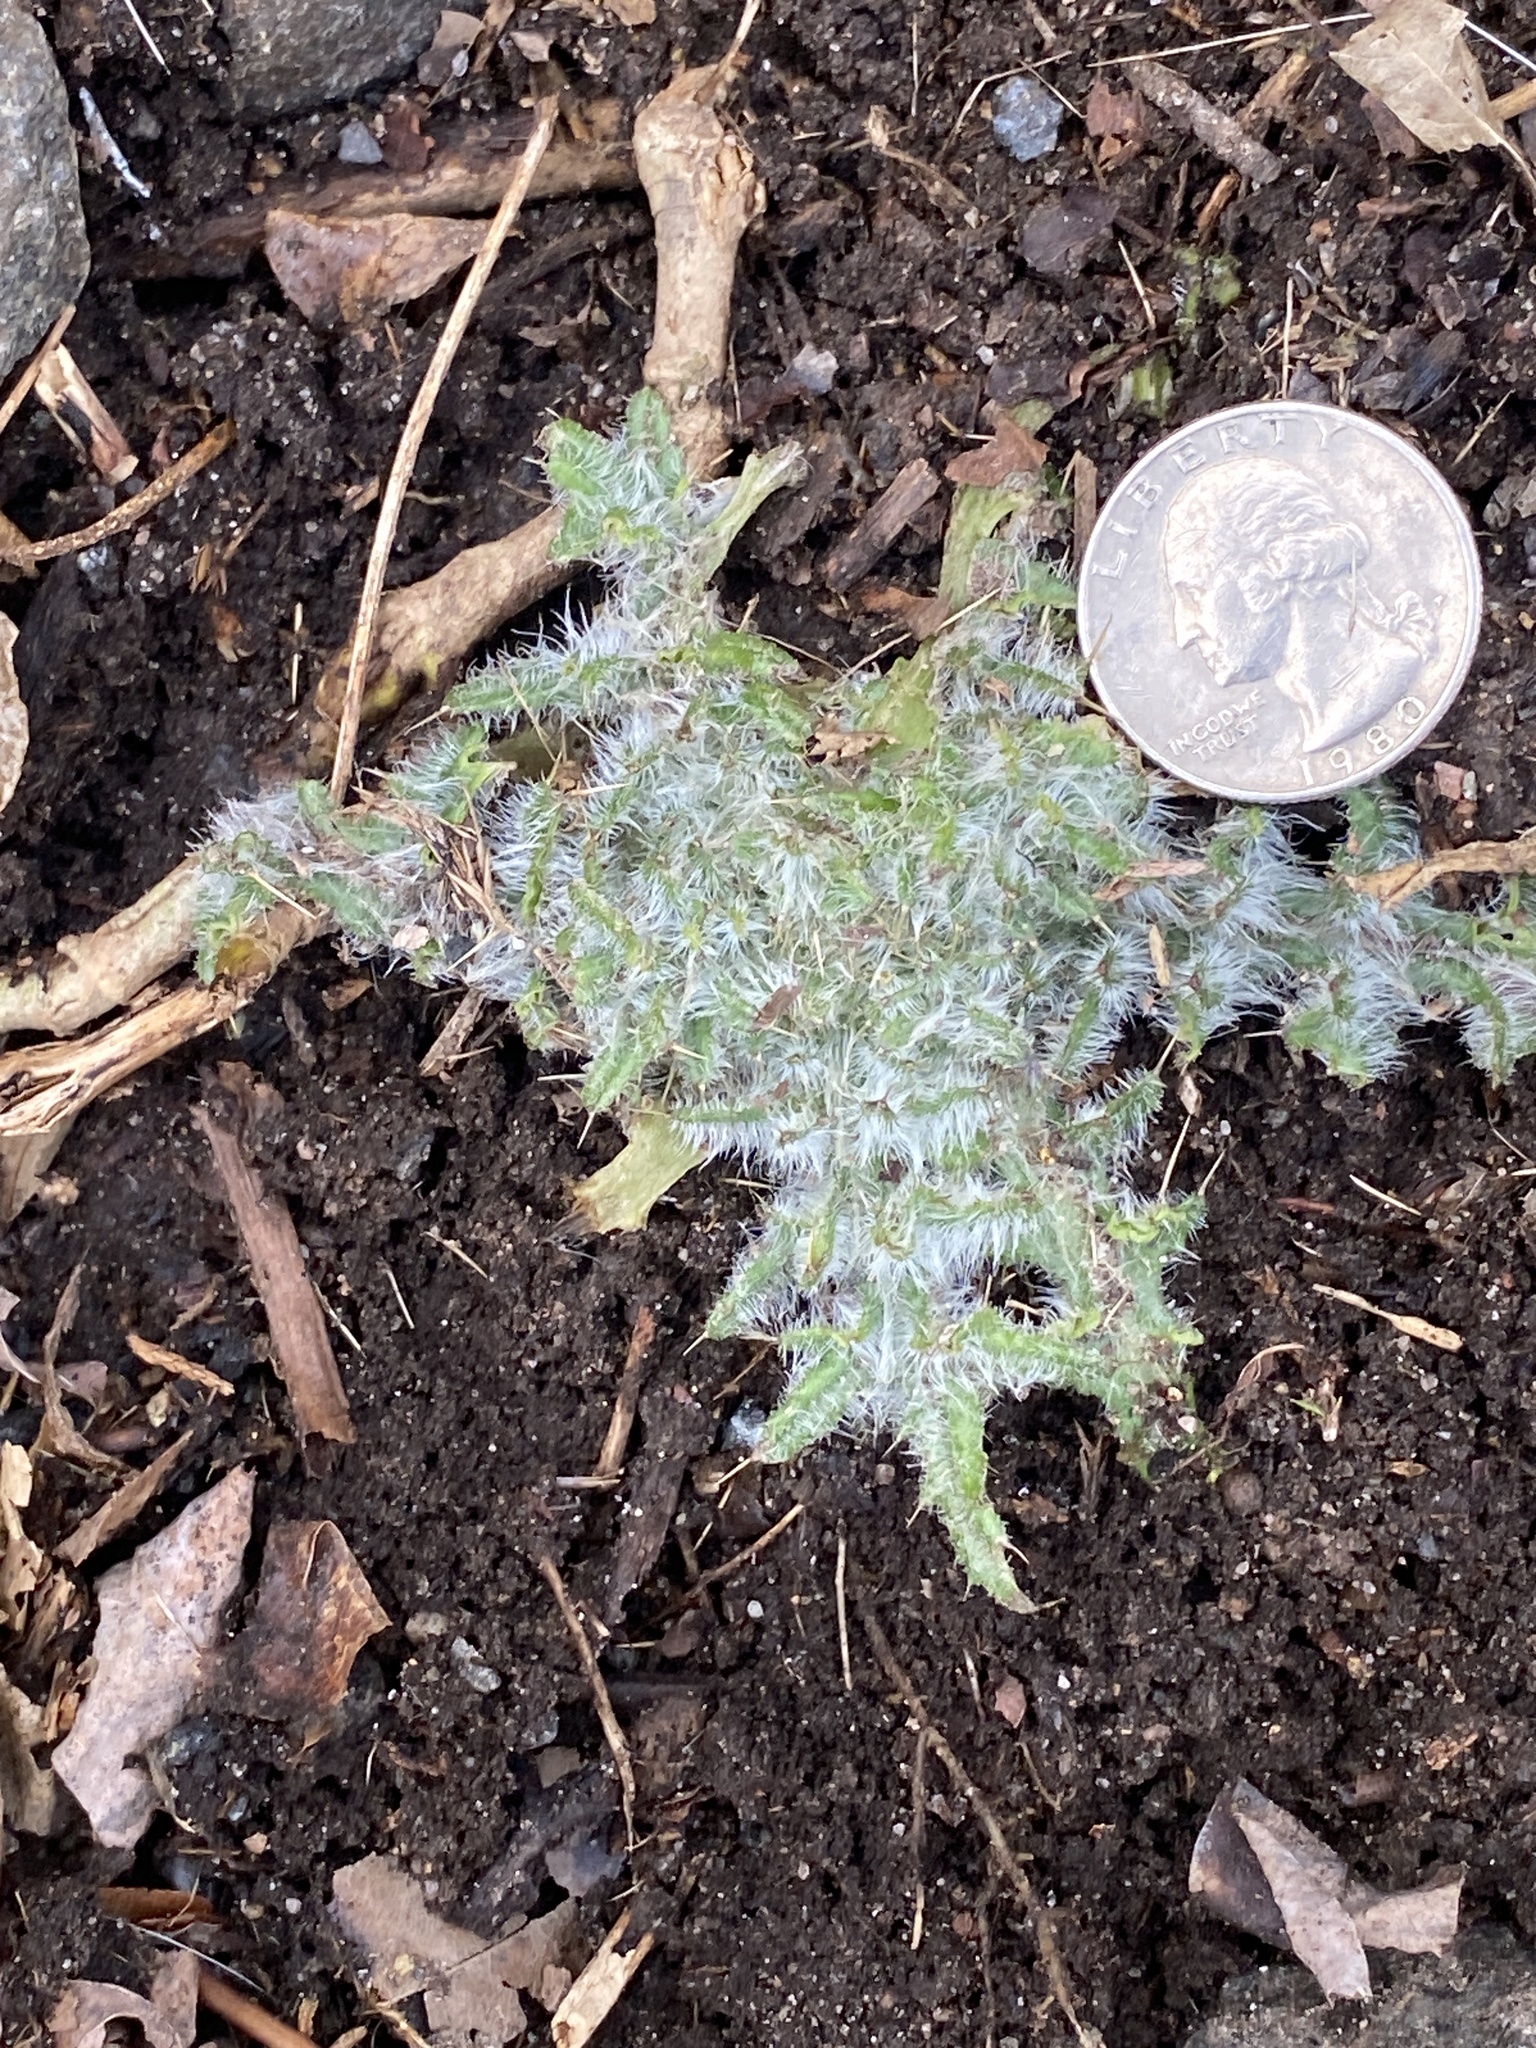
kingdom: Plantae
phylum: Tracheophyta
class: Magnoliopsida
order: Asterales
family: Asteraceae
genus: Cirsium
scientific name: Cirsium vulgare
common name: Bull thistle
